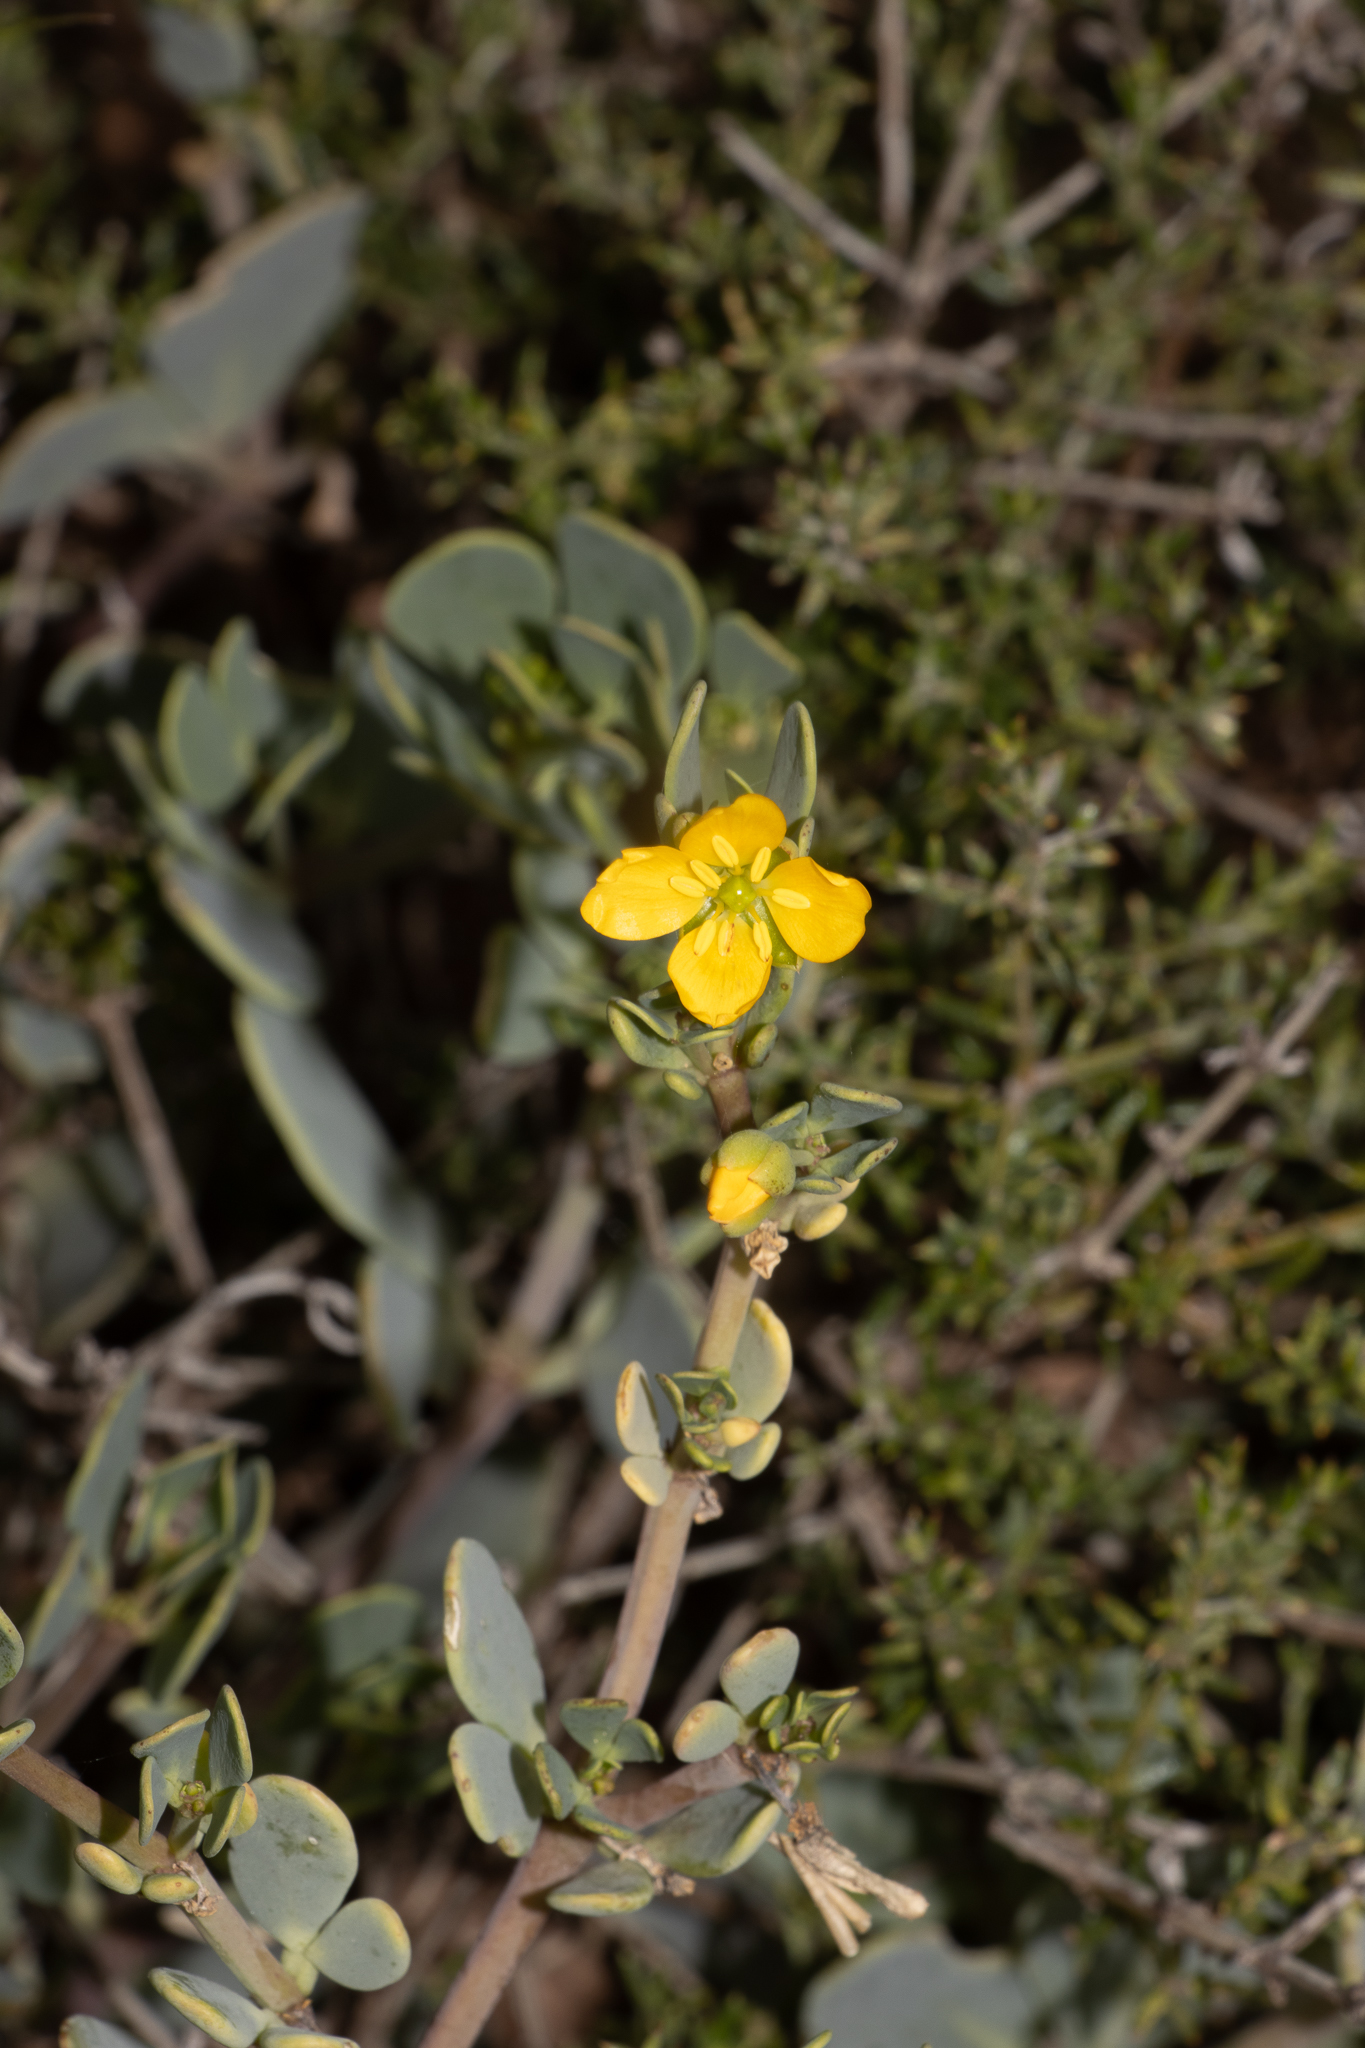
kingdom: Plantae
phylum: Tracheophyta
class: Magnoliopsida
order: Zygophyllales
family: Zygophyllaceae
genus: Roepera
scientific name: Roepera glauca
